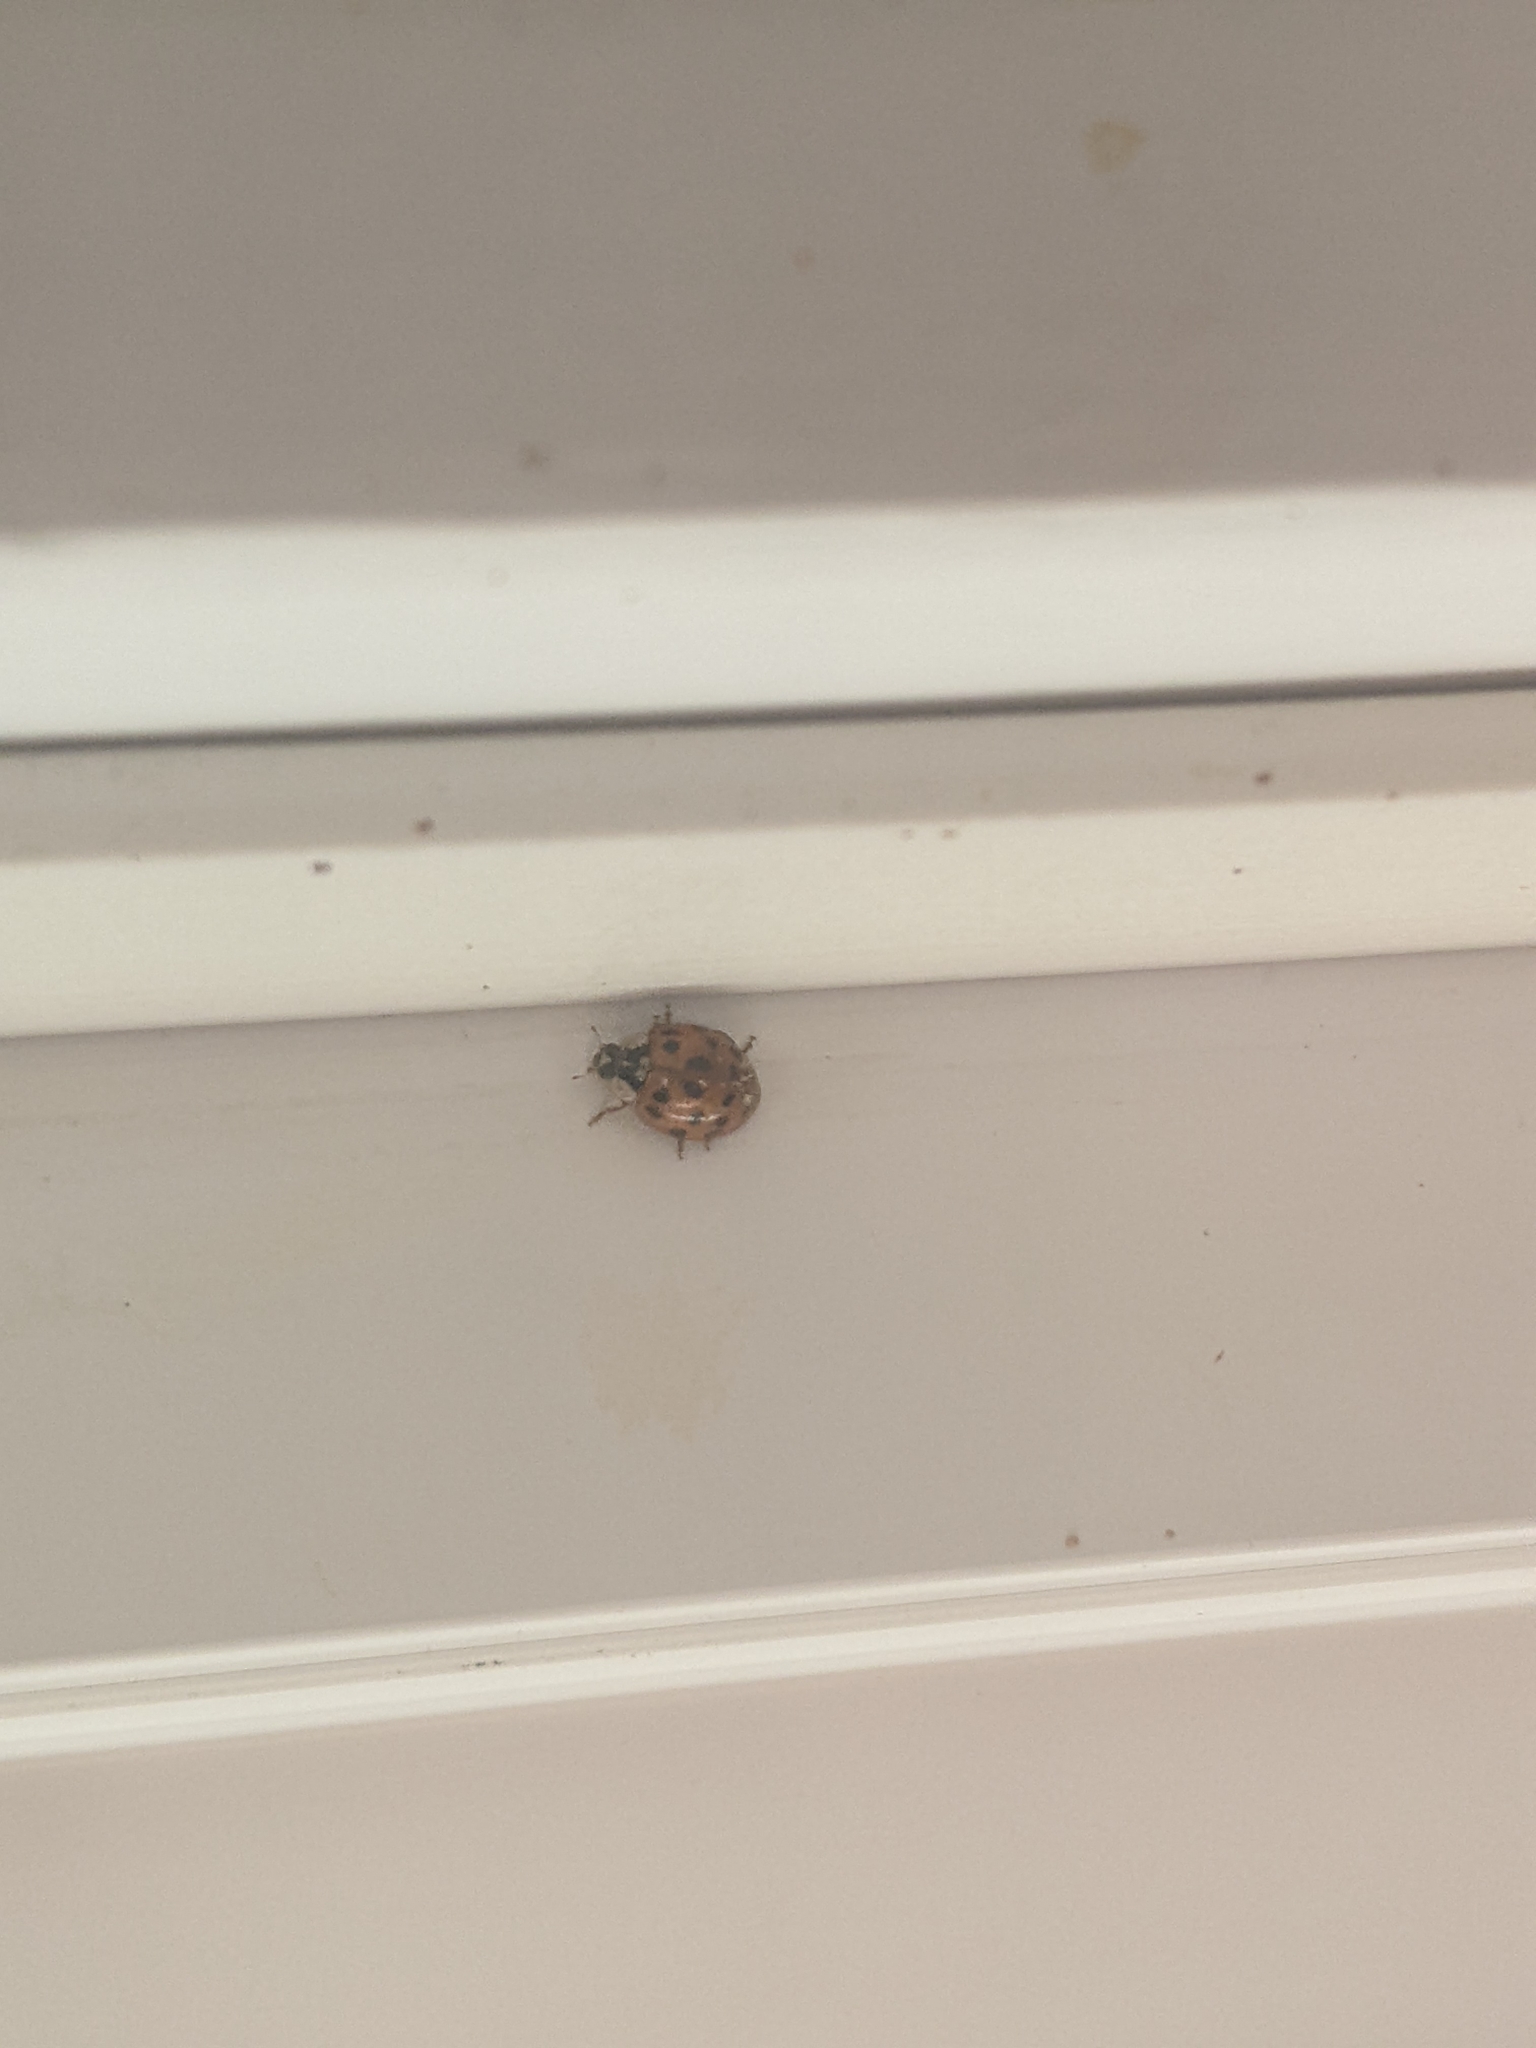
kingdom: Animalia
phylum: Arthropoda
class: Insecta
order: Coleoptera
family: Coccinellidae
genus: Harmonia
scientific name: Harmonia axyridis
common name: Harlequin ladybird
